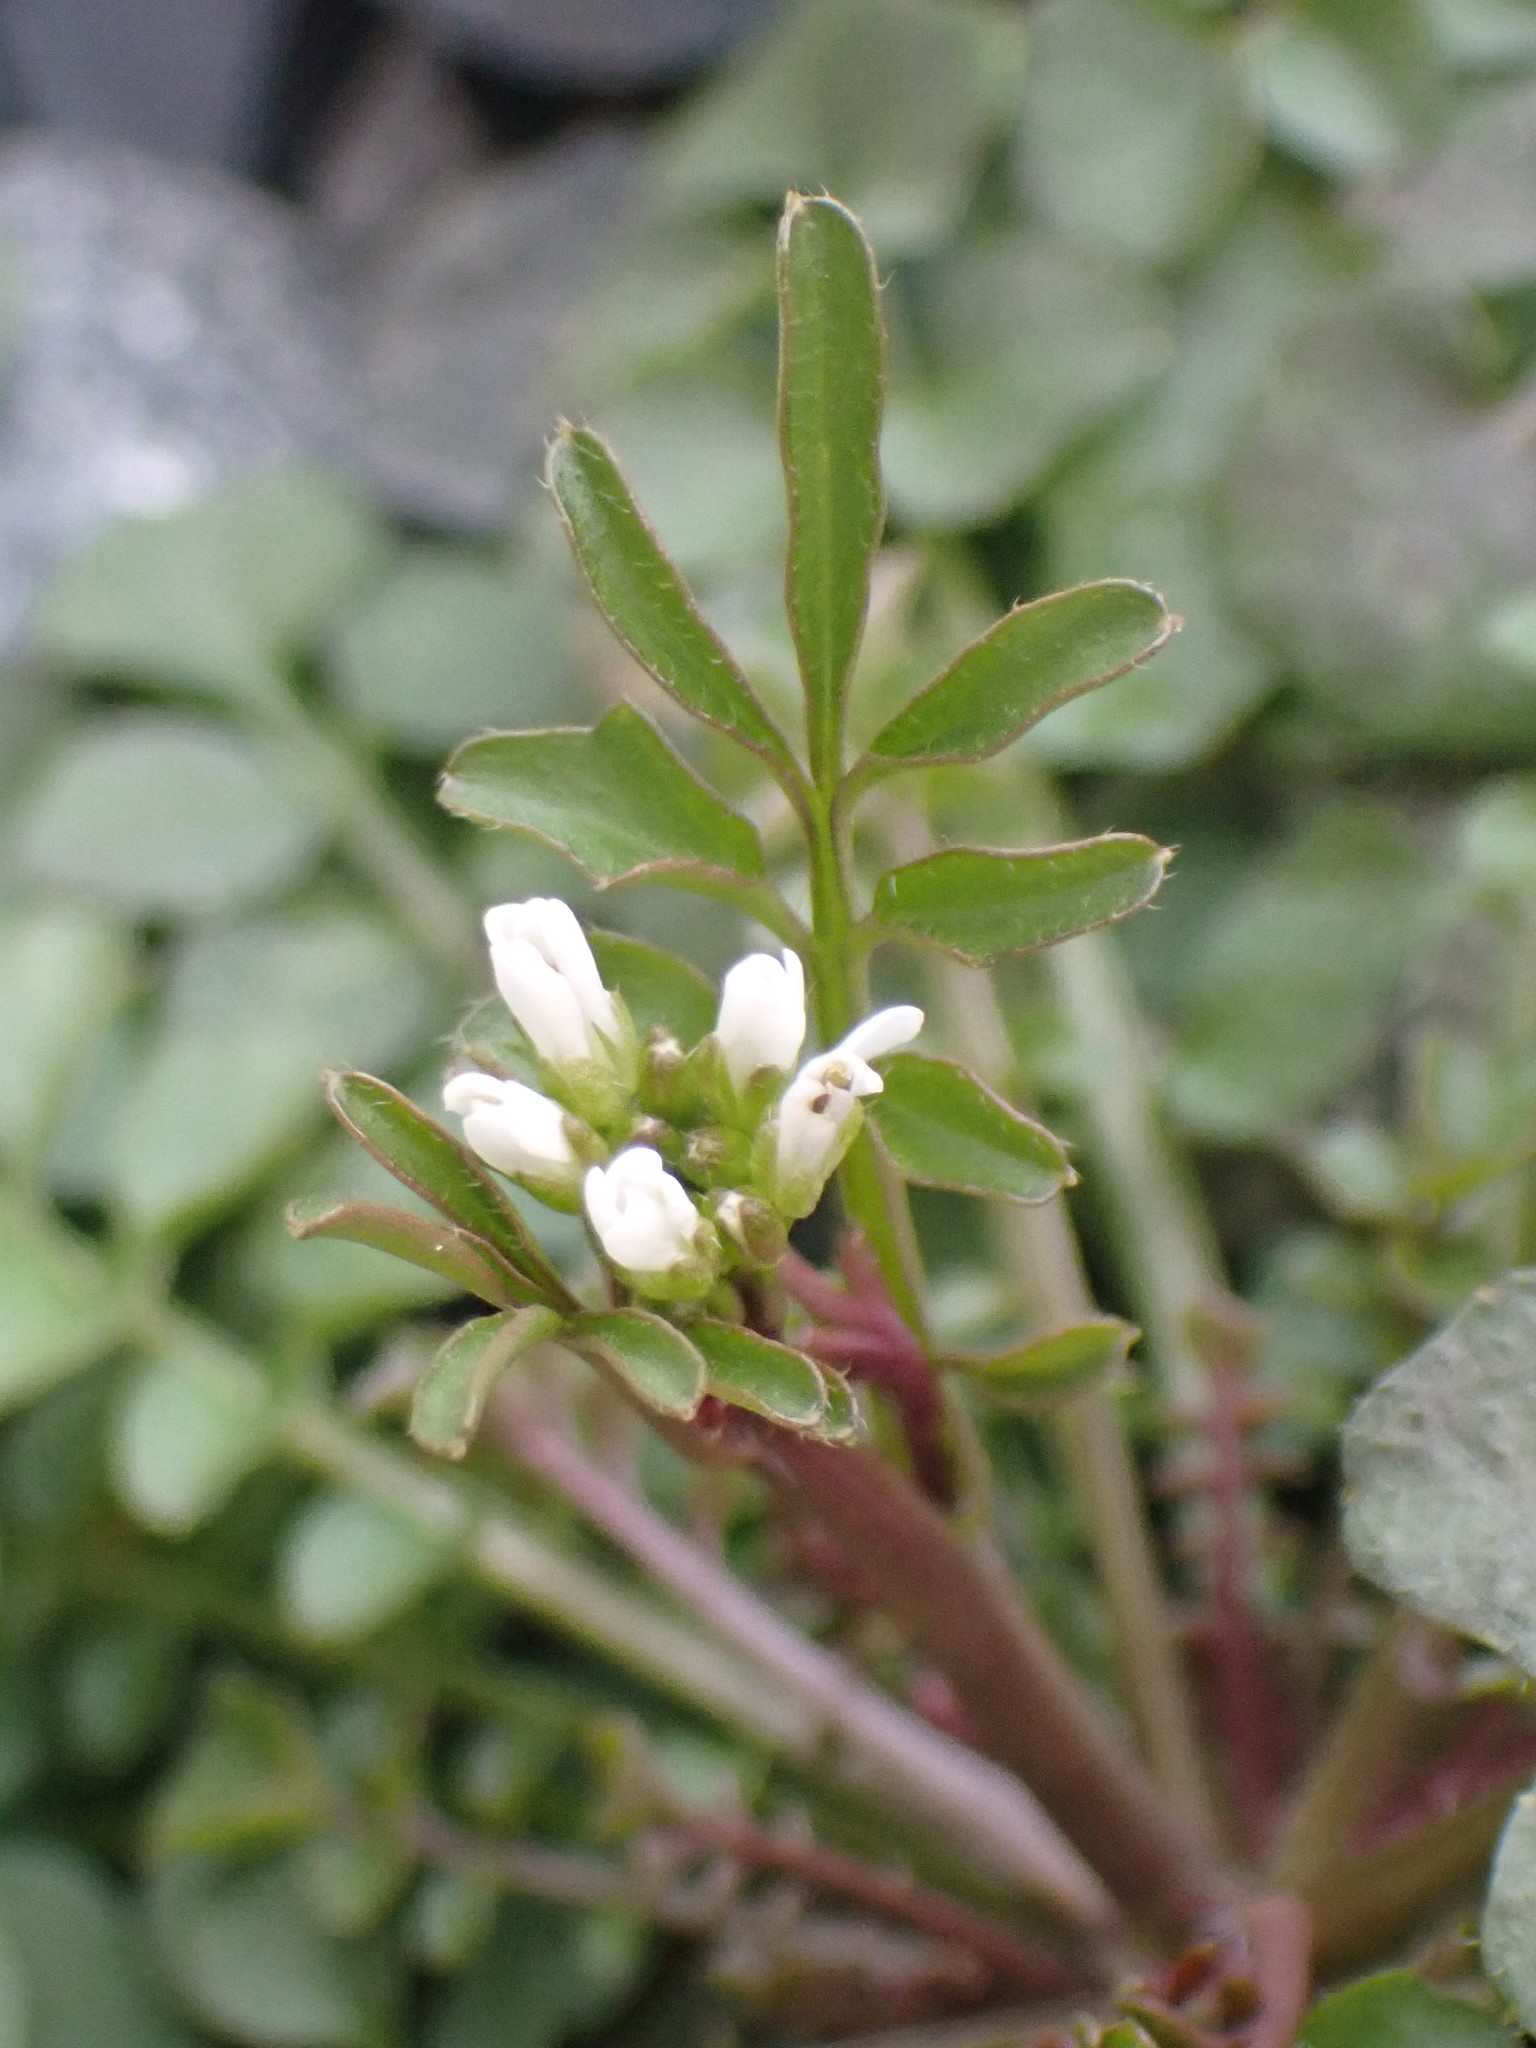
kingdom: Plantae
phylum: Tracheophyta
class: Magnoliopsida
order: Brassicales
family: Brassicaceae
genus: Cardamine
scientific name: Cardamine hirsuta
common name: Hairy bittercress
